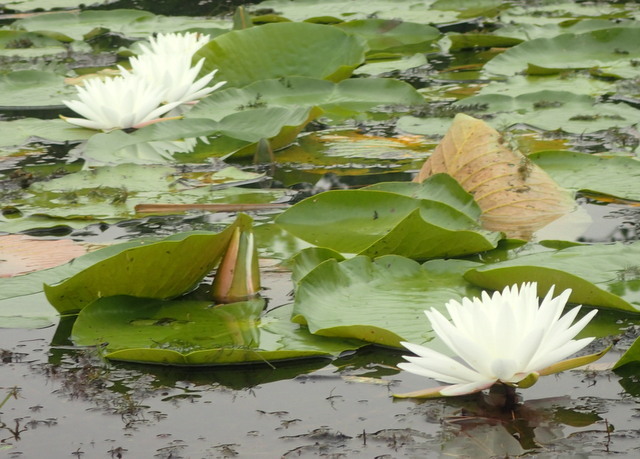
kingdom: Plantae
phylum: Tracheophyta
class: Magnoliopsida
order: Nymphaeales
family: Nymphaeaceae
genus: Nymphaea
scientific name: Nymphaea odorata
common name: Fragrant water-lily
